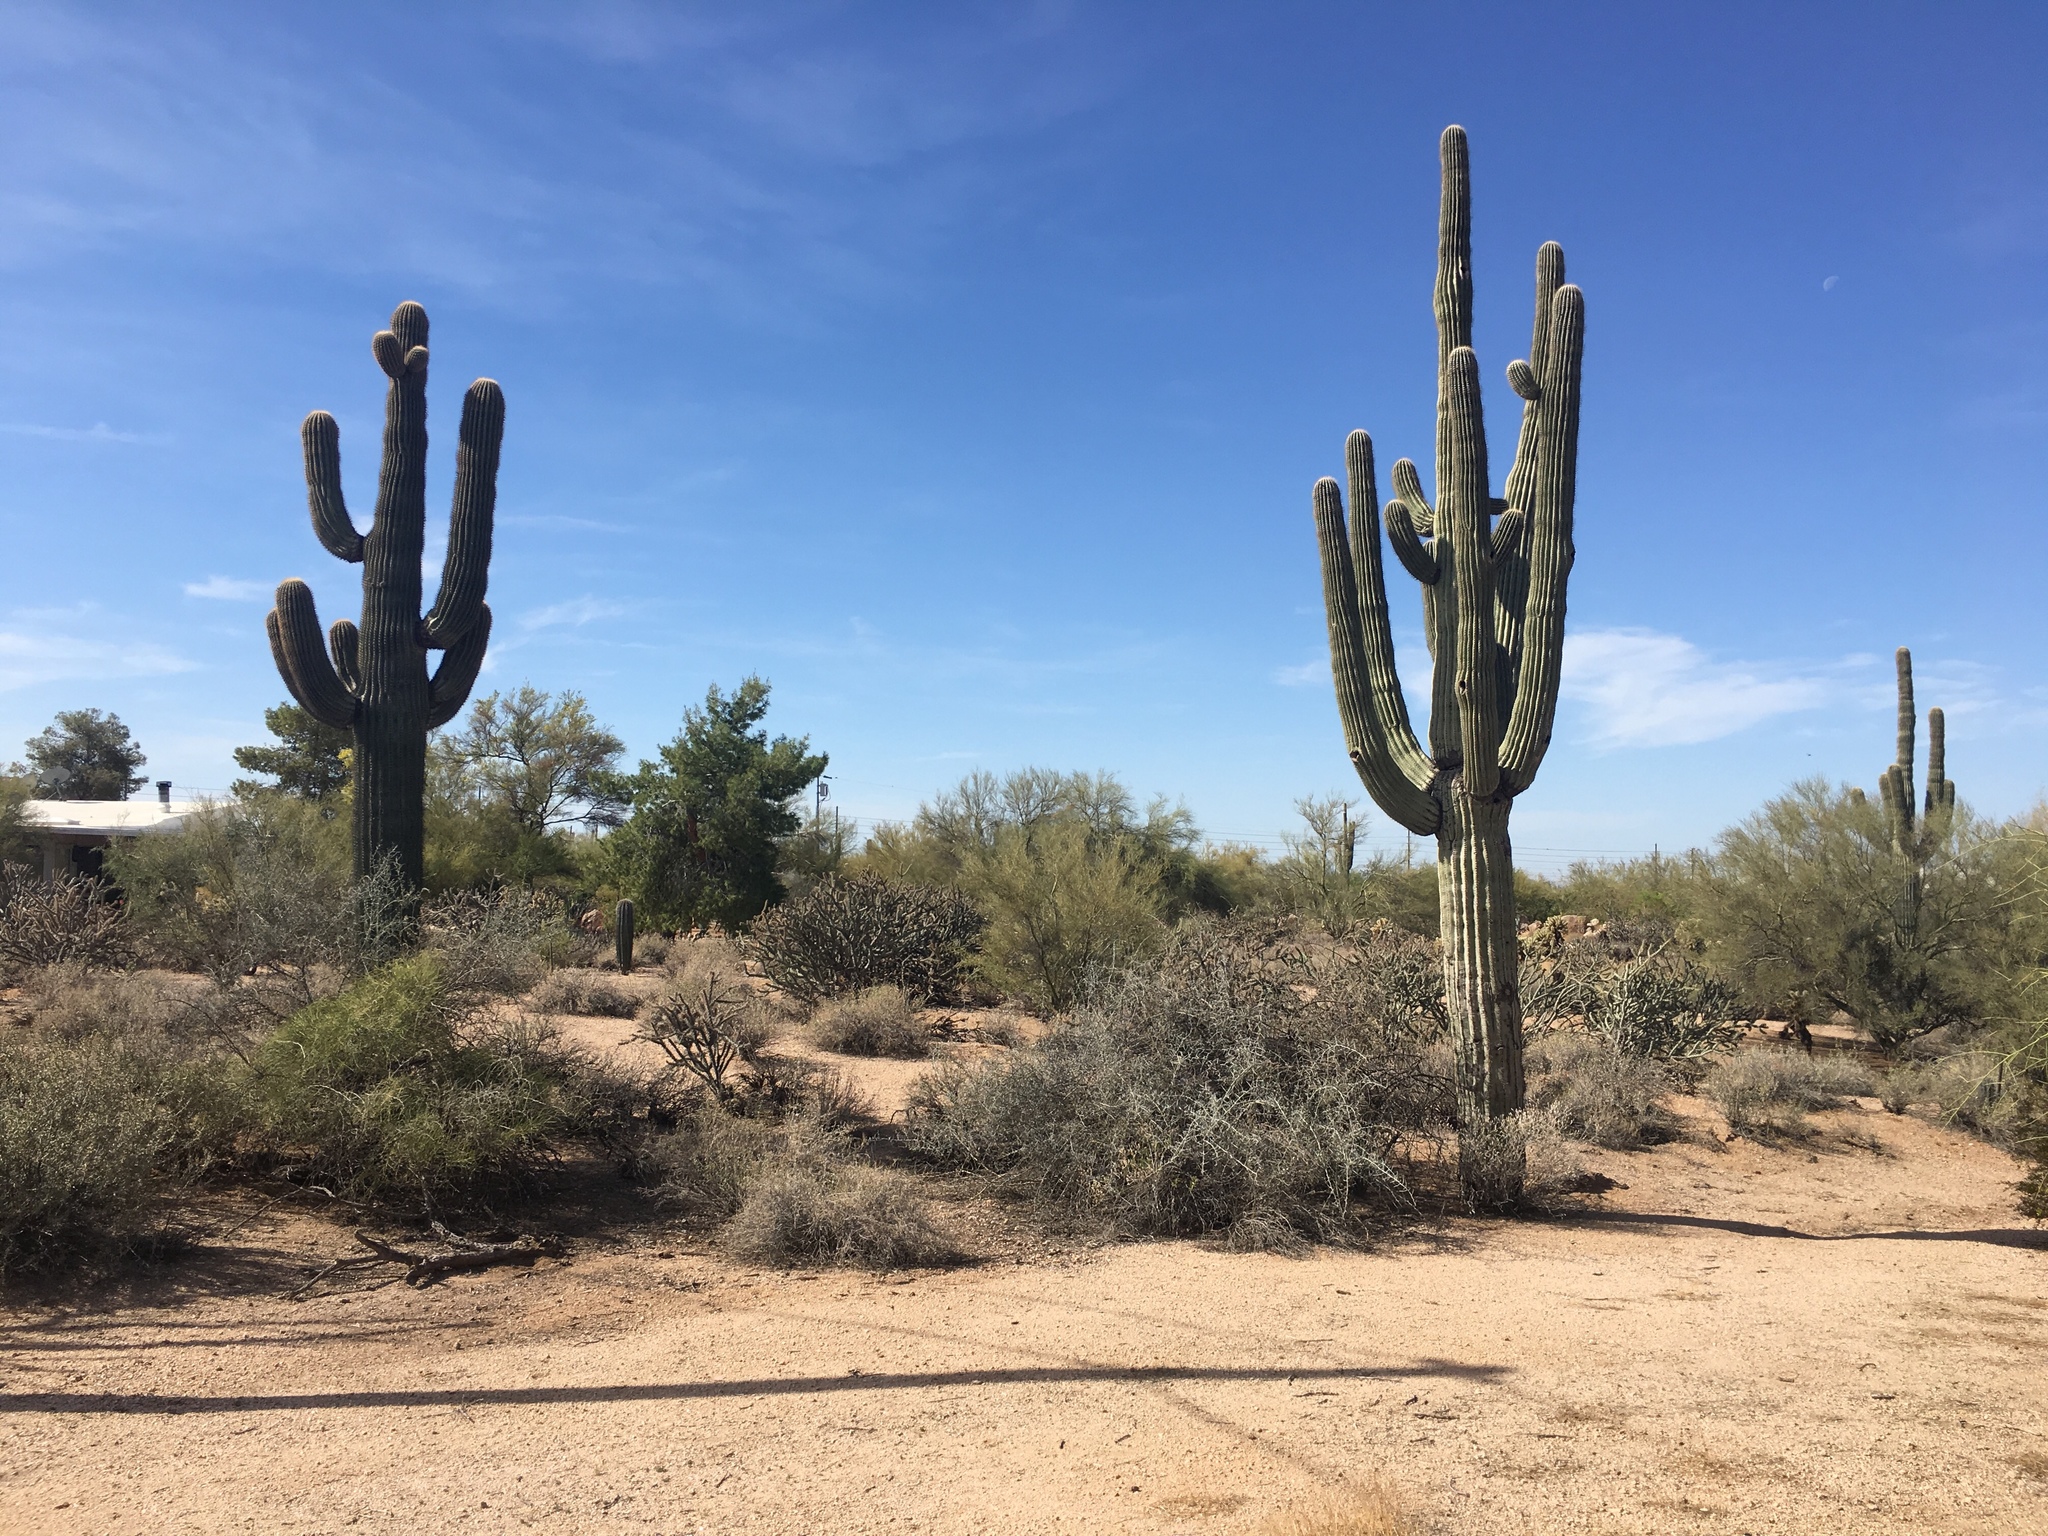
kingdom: Plantae
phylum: Tracheophyta
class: Magnoliopsida
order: Caryophyllales
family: Cactaceae
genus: Carnegiea
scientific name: Carnegiea gigantea
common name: Saguaro
